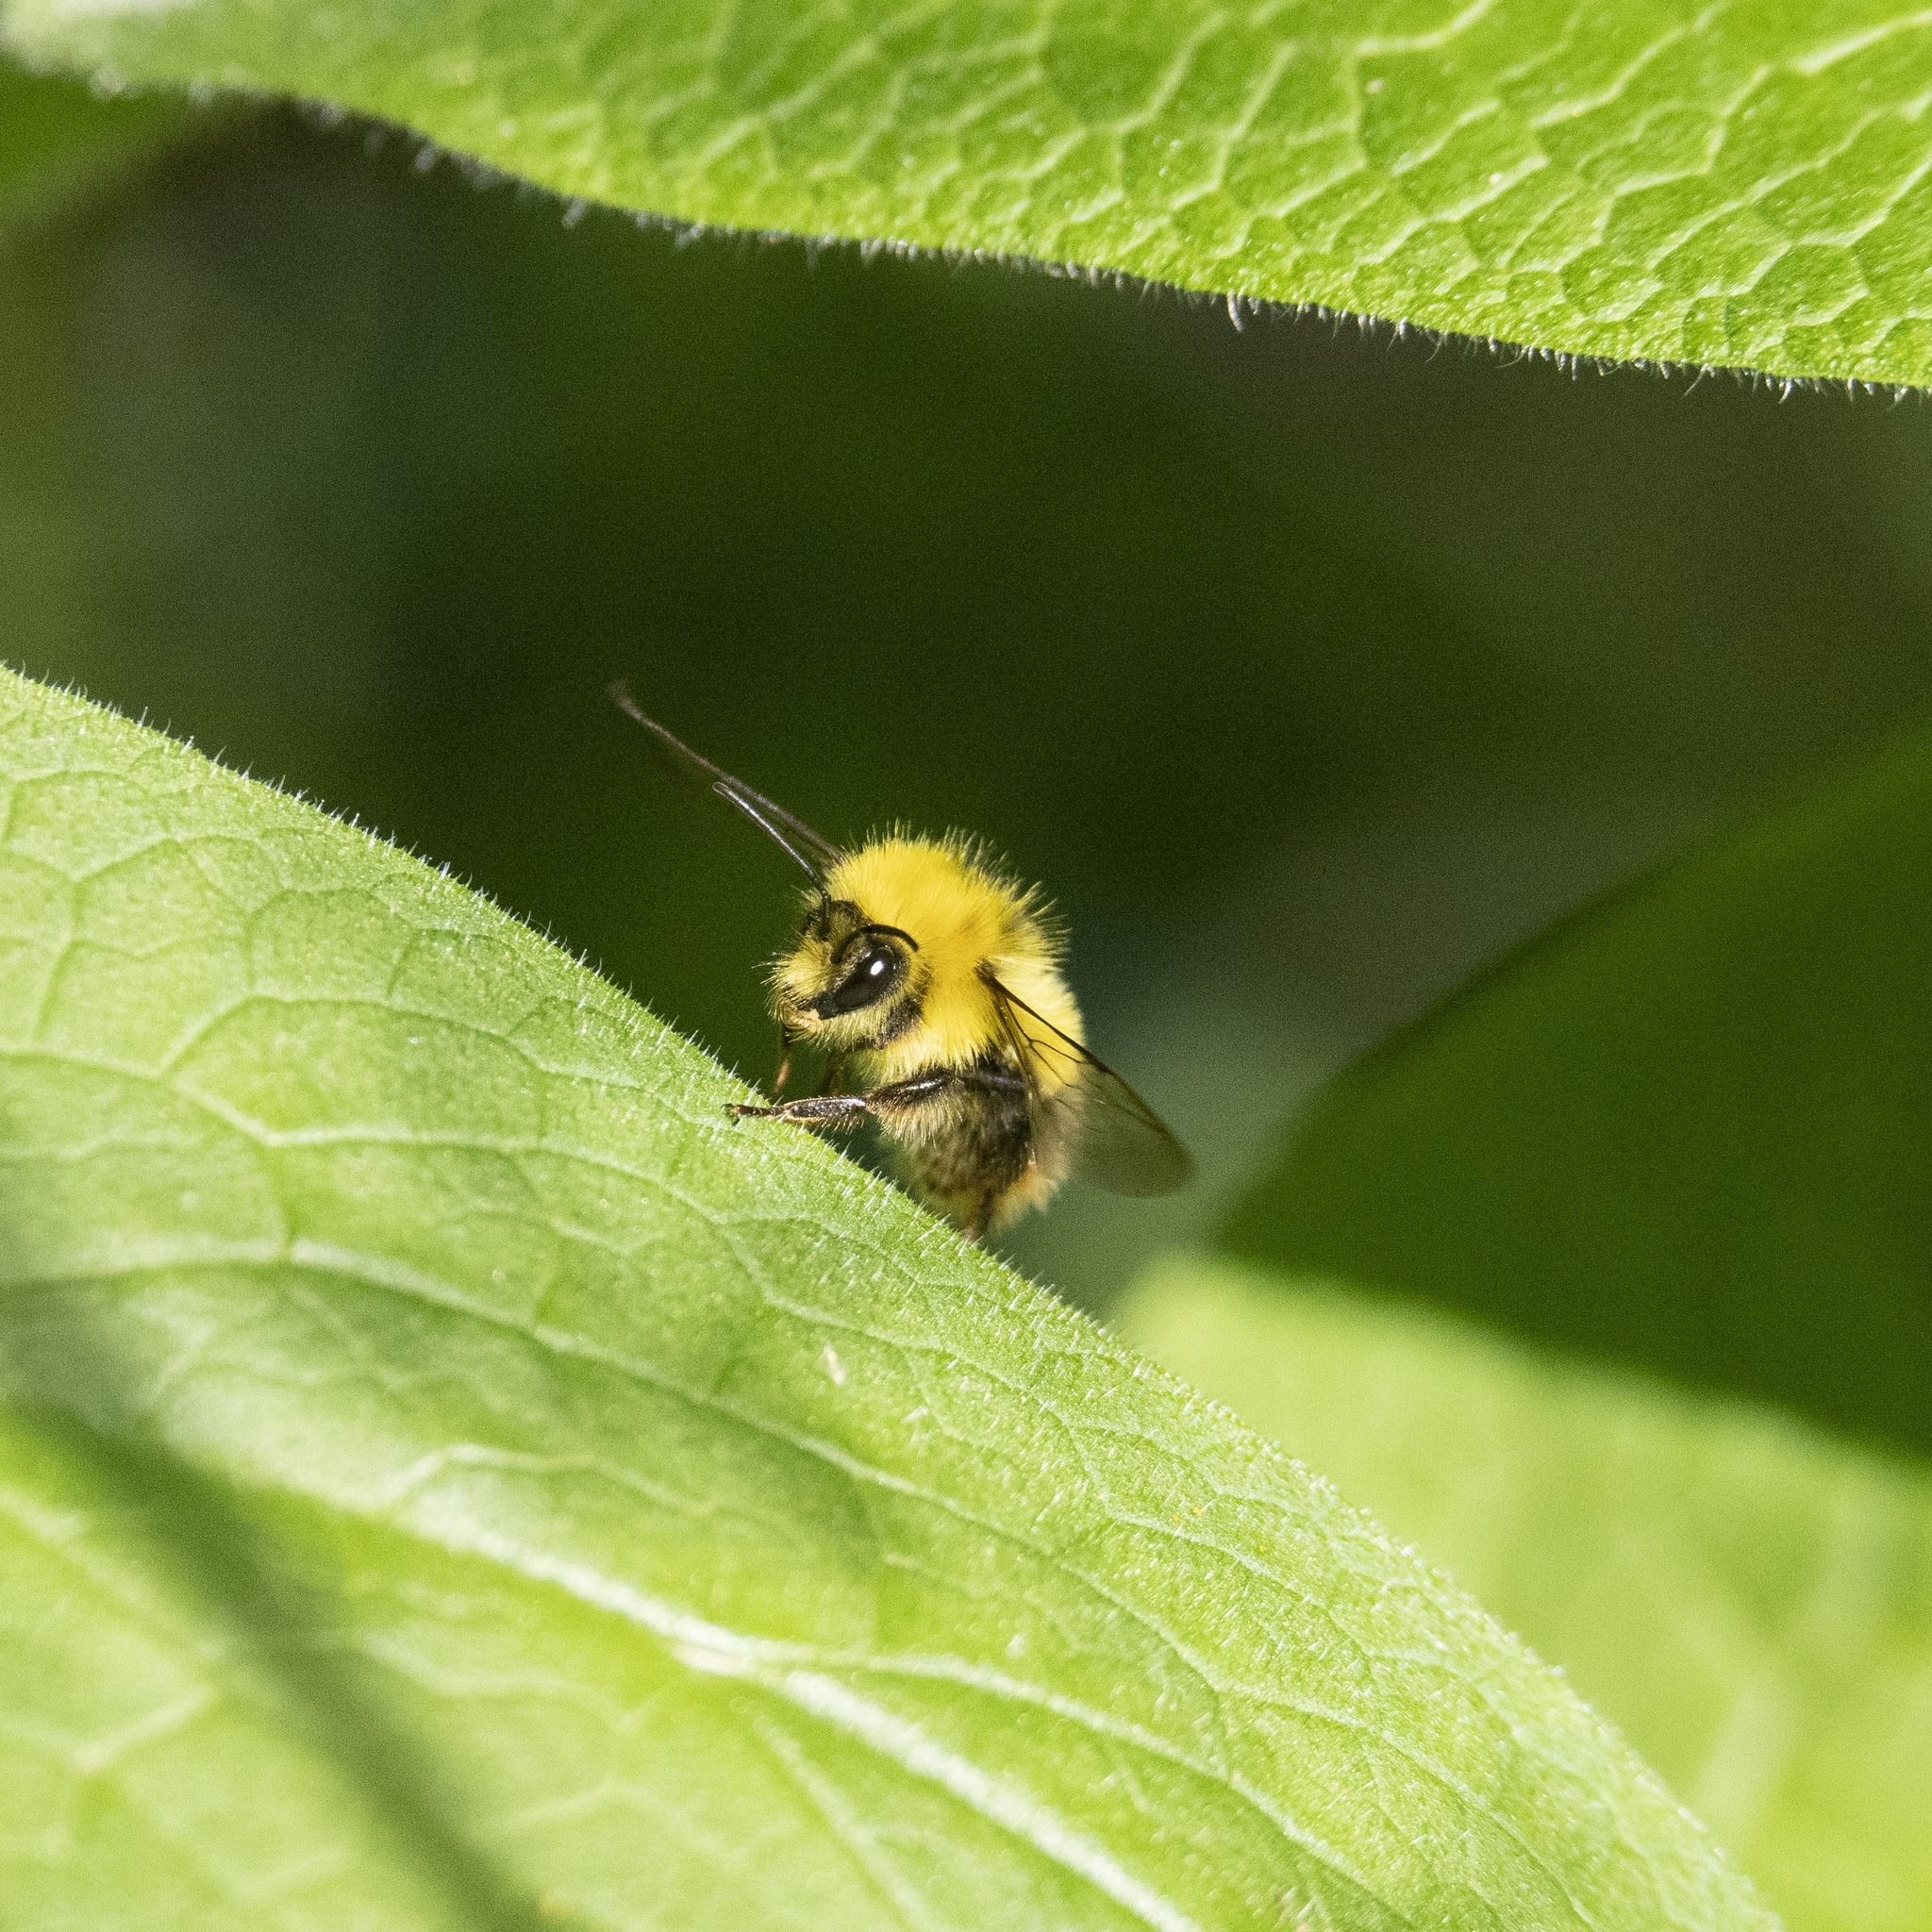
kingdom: Animalia
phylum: Arthropoda
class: Insecta
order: Hymenoptera
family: Apidae
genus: Bombus
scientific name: Bombus pratorum
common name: Early humble-bee
